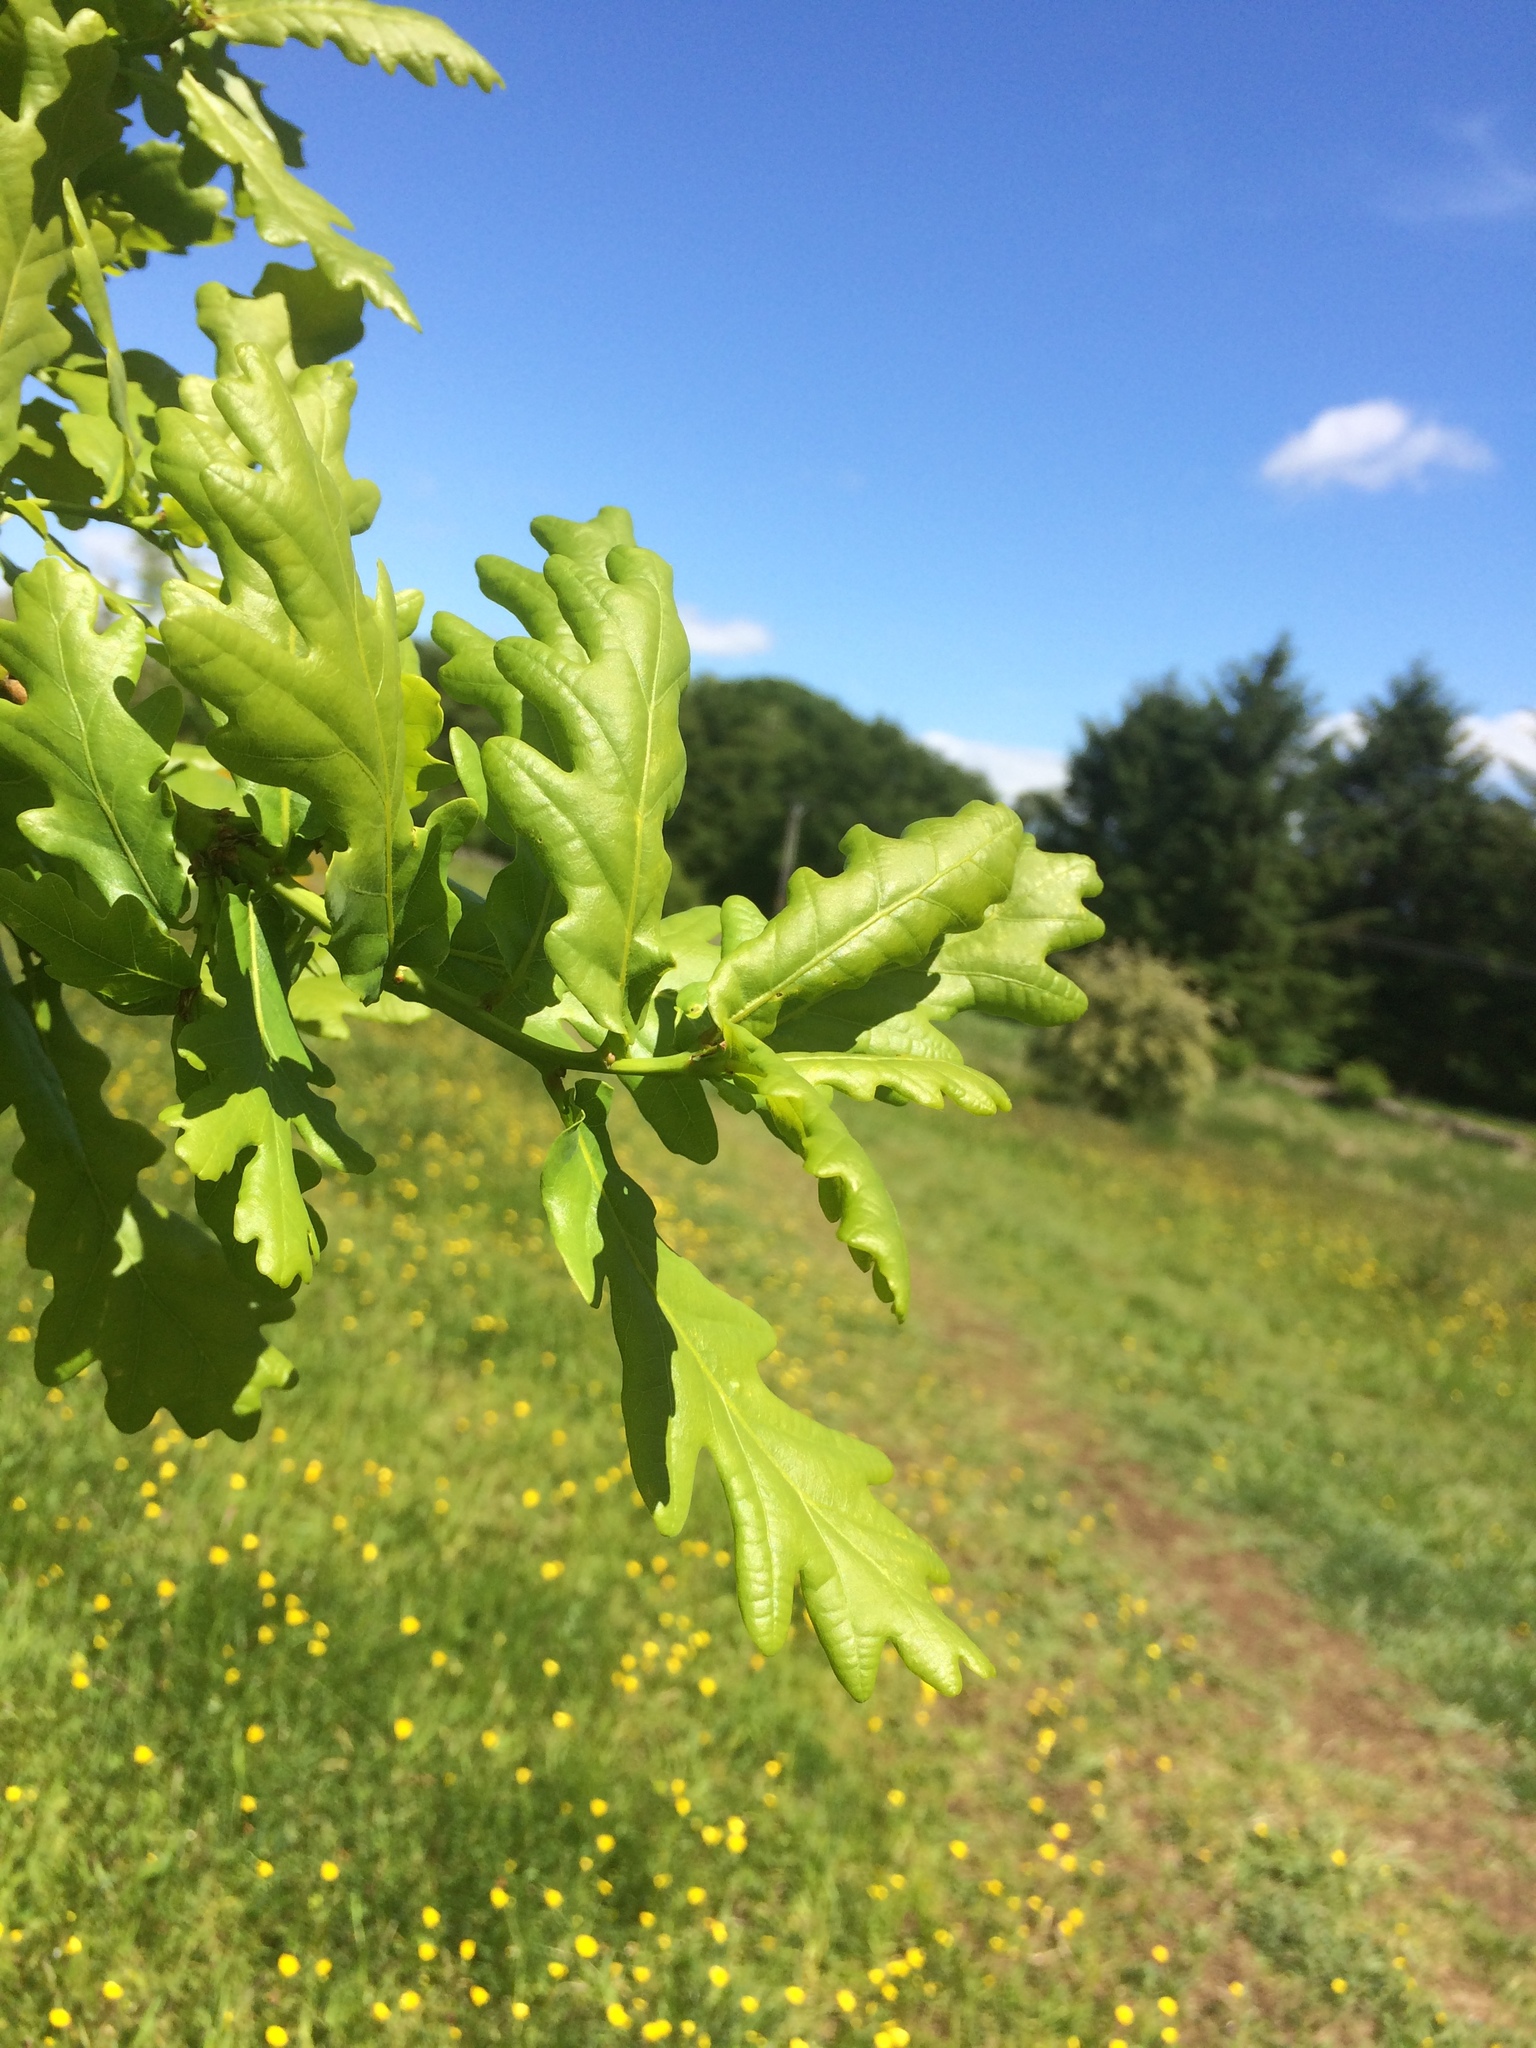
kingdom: Plantae
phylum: Tracheophyta
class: Magnoliopsida
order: Fagales
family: Fagaceae
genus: Quercus
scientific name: Quercus robur
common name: Pedunculate oak
